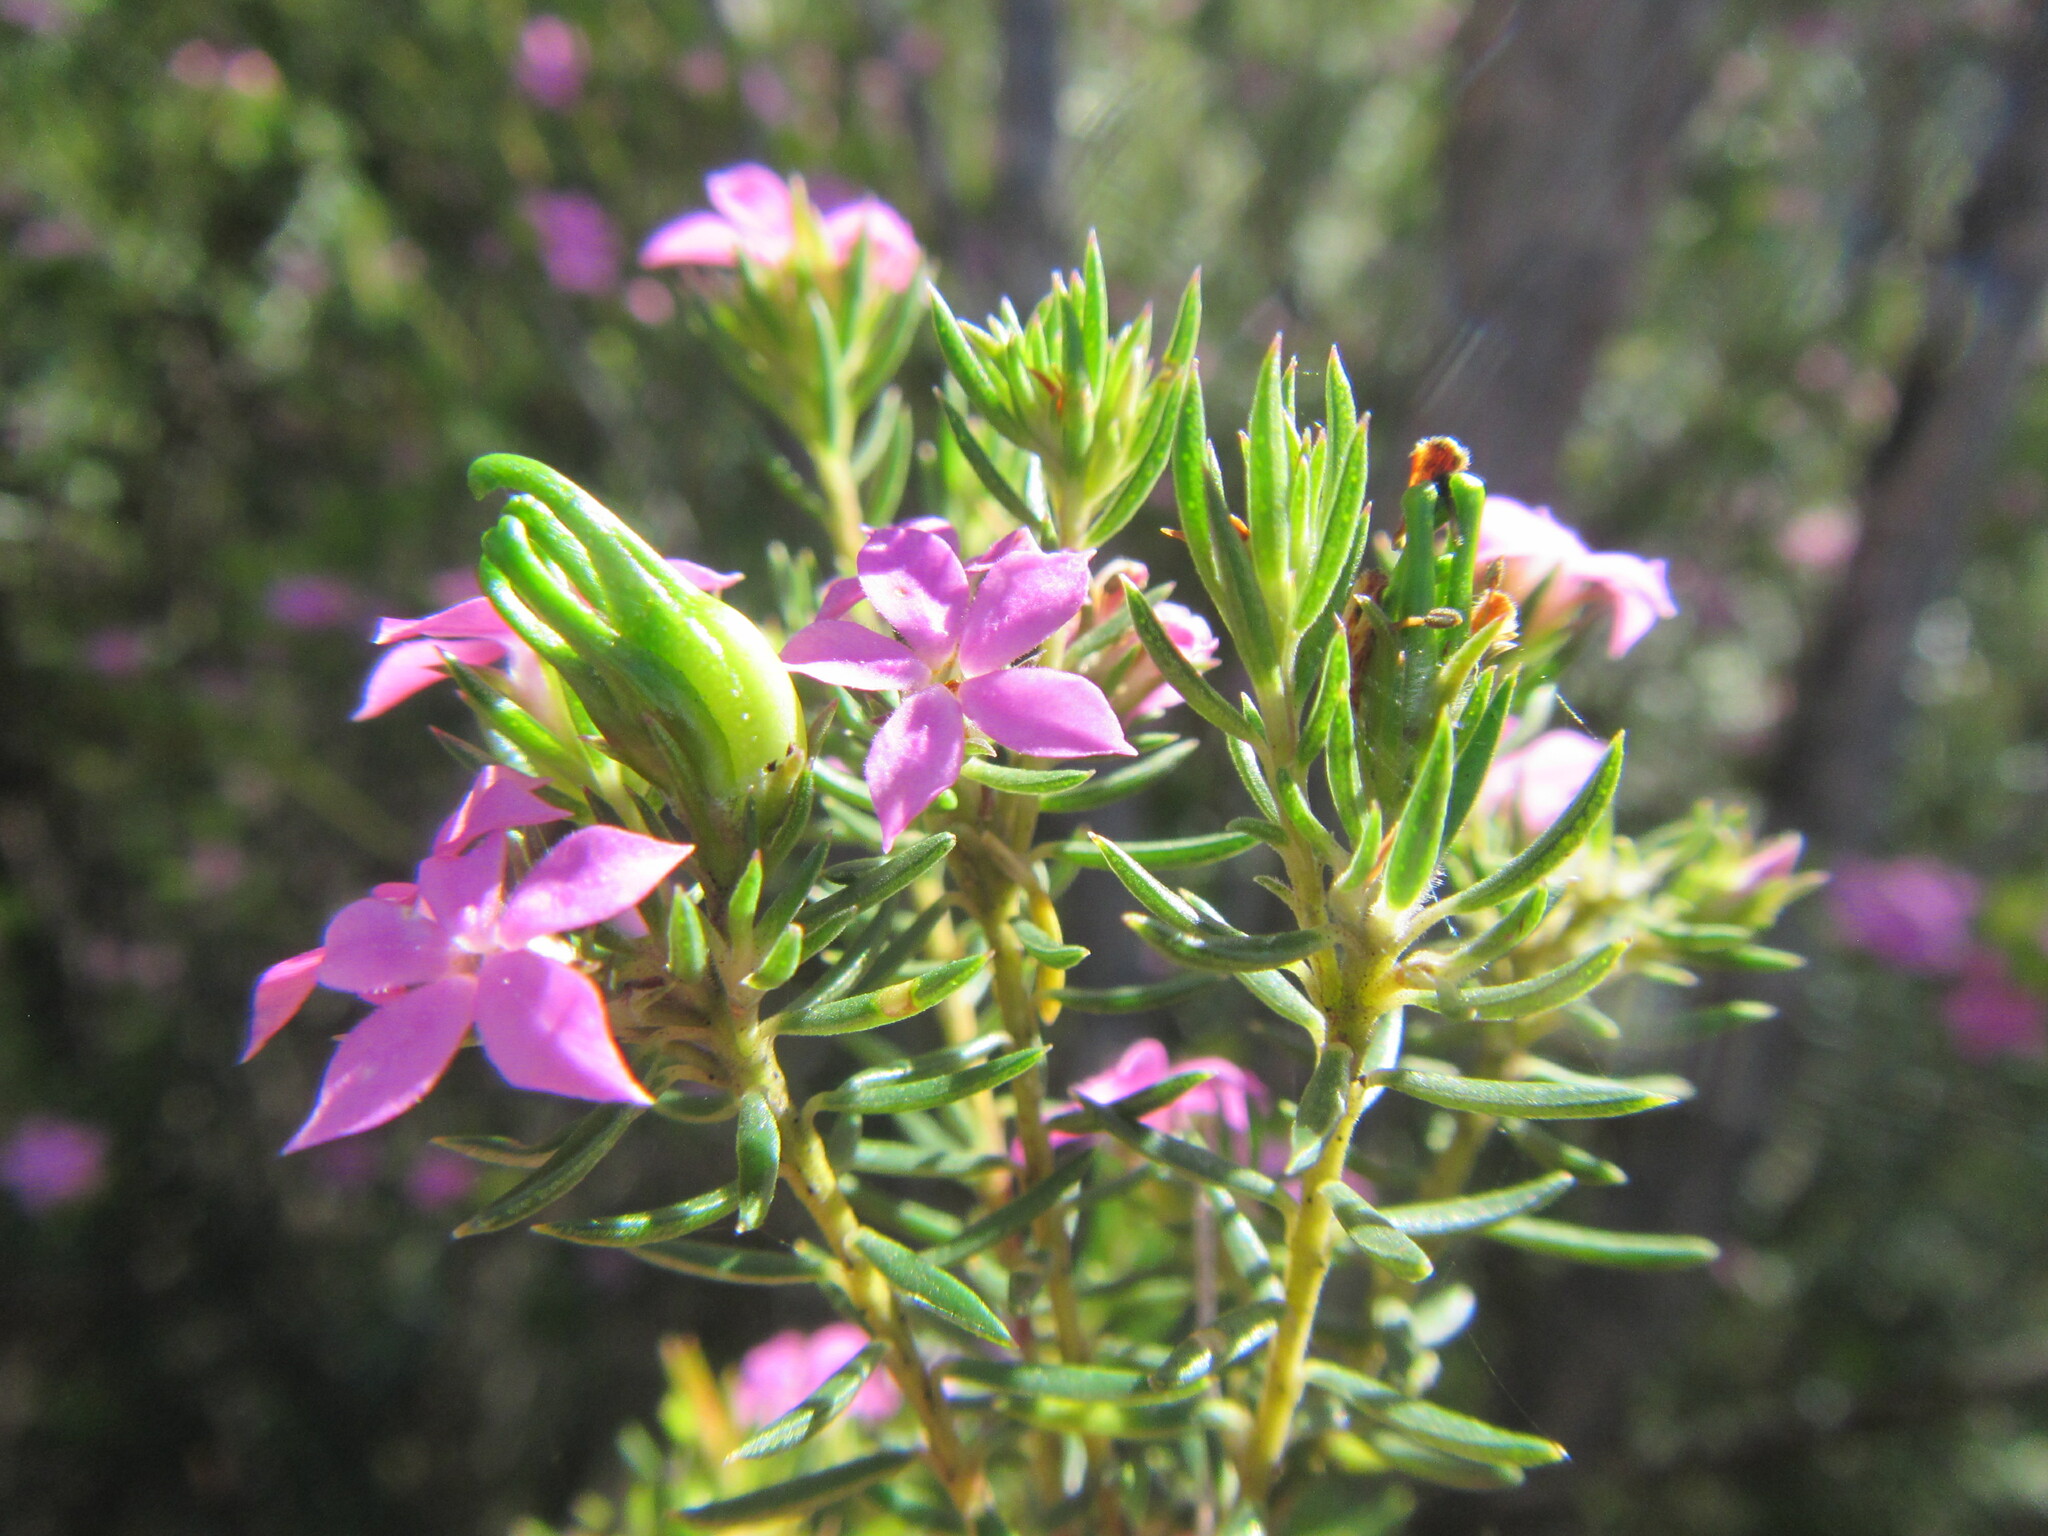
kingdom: Plantae
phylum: Tracheophyta
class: Magnoliopsida
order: Sapindales
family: Rutaceae
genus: Acmadenia
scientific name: Acmadenia alternifolia
